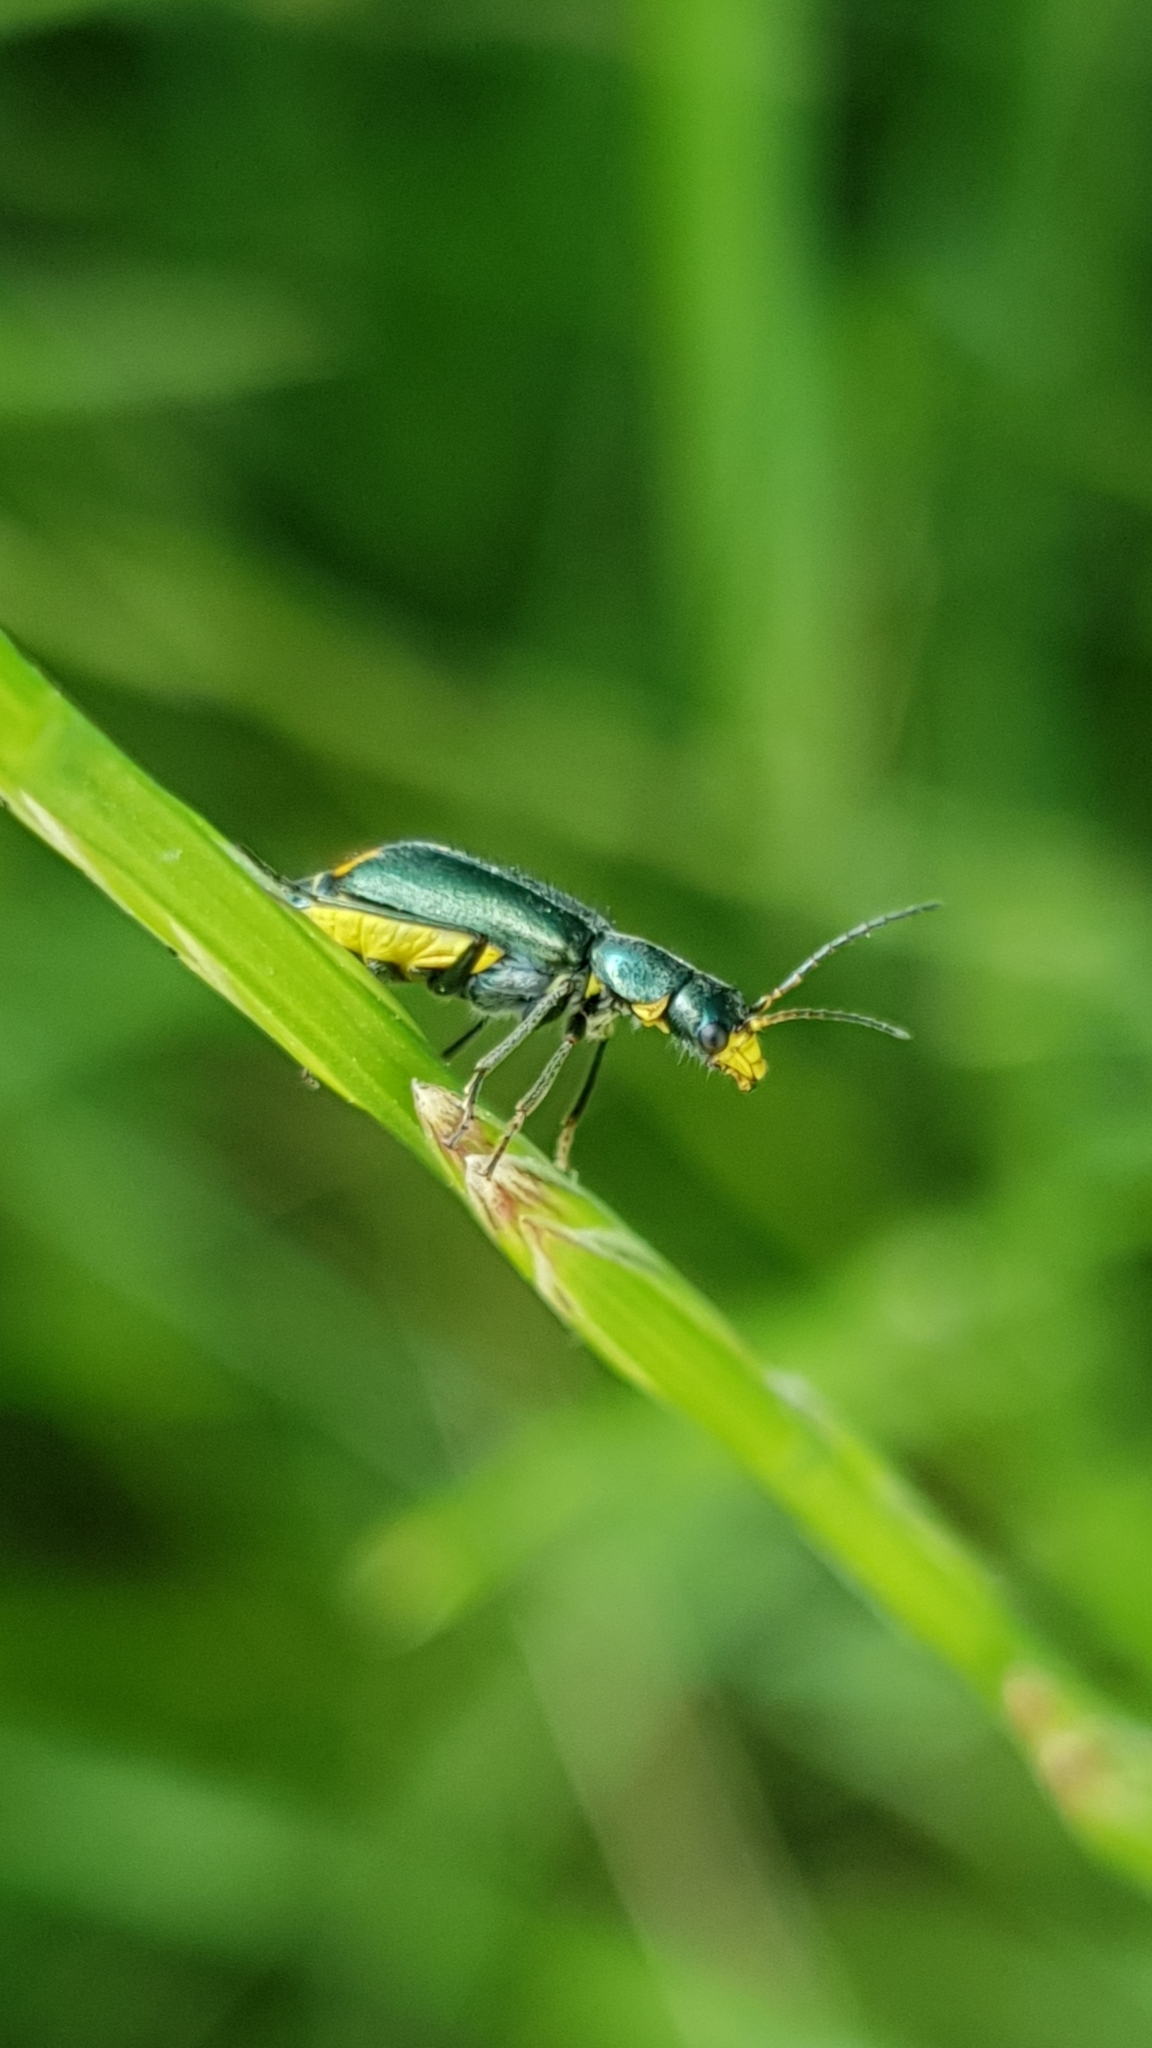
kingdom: Animalia
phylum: Arthropoda
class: Insecta
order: Coleoptera
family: Malachiidae
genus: Clanoptilus
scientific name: Clanoptilus marginellus
